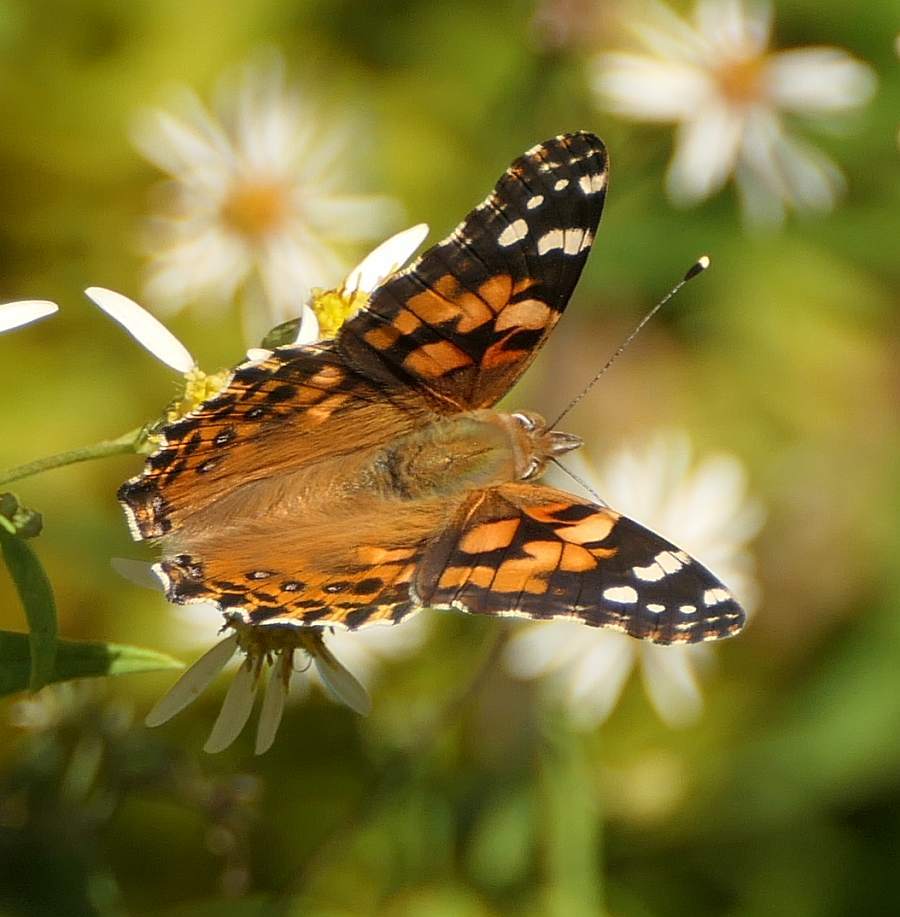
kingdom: Animalia
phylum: Arthropoda
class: Insecta
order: Lepidoptera
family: Nymphalidae
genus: Vanessa
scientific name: Vanessa cardui
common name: Painted lady
